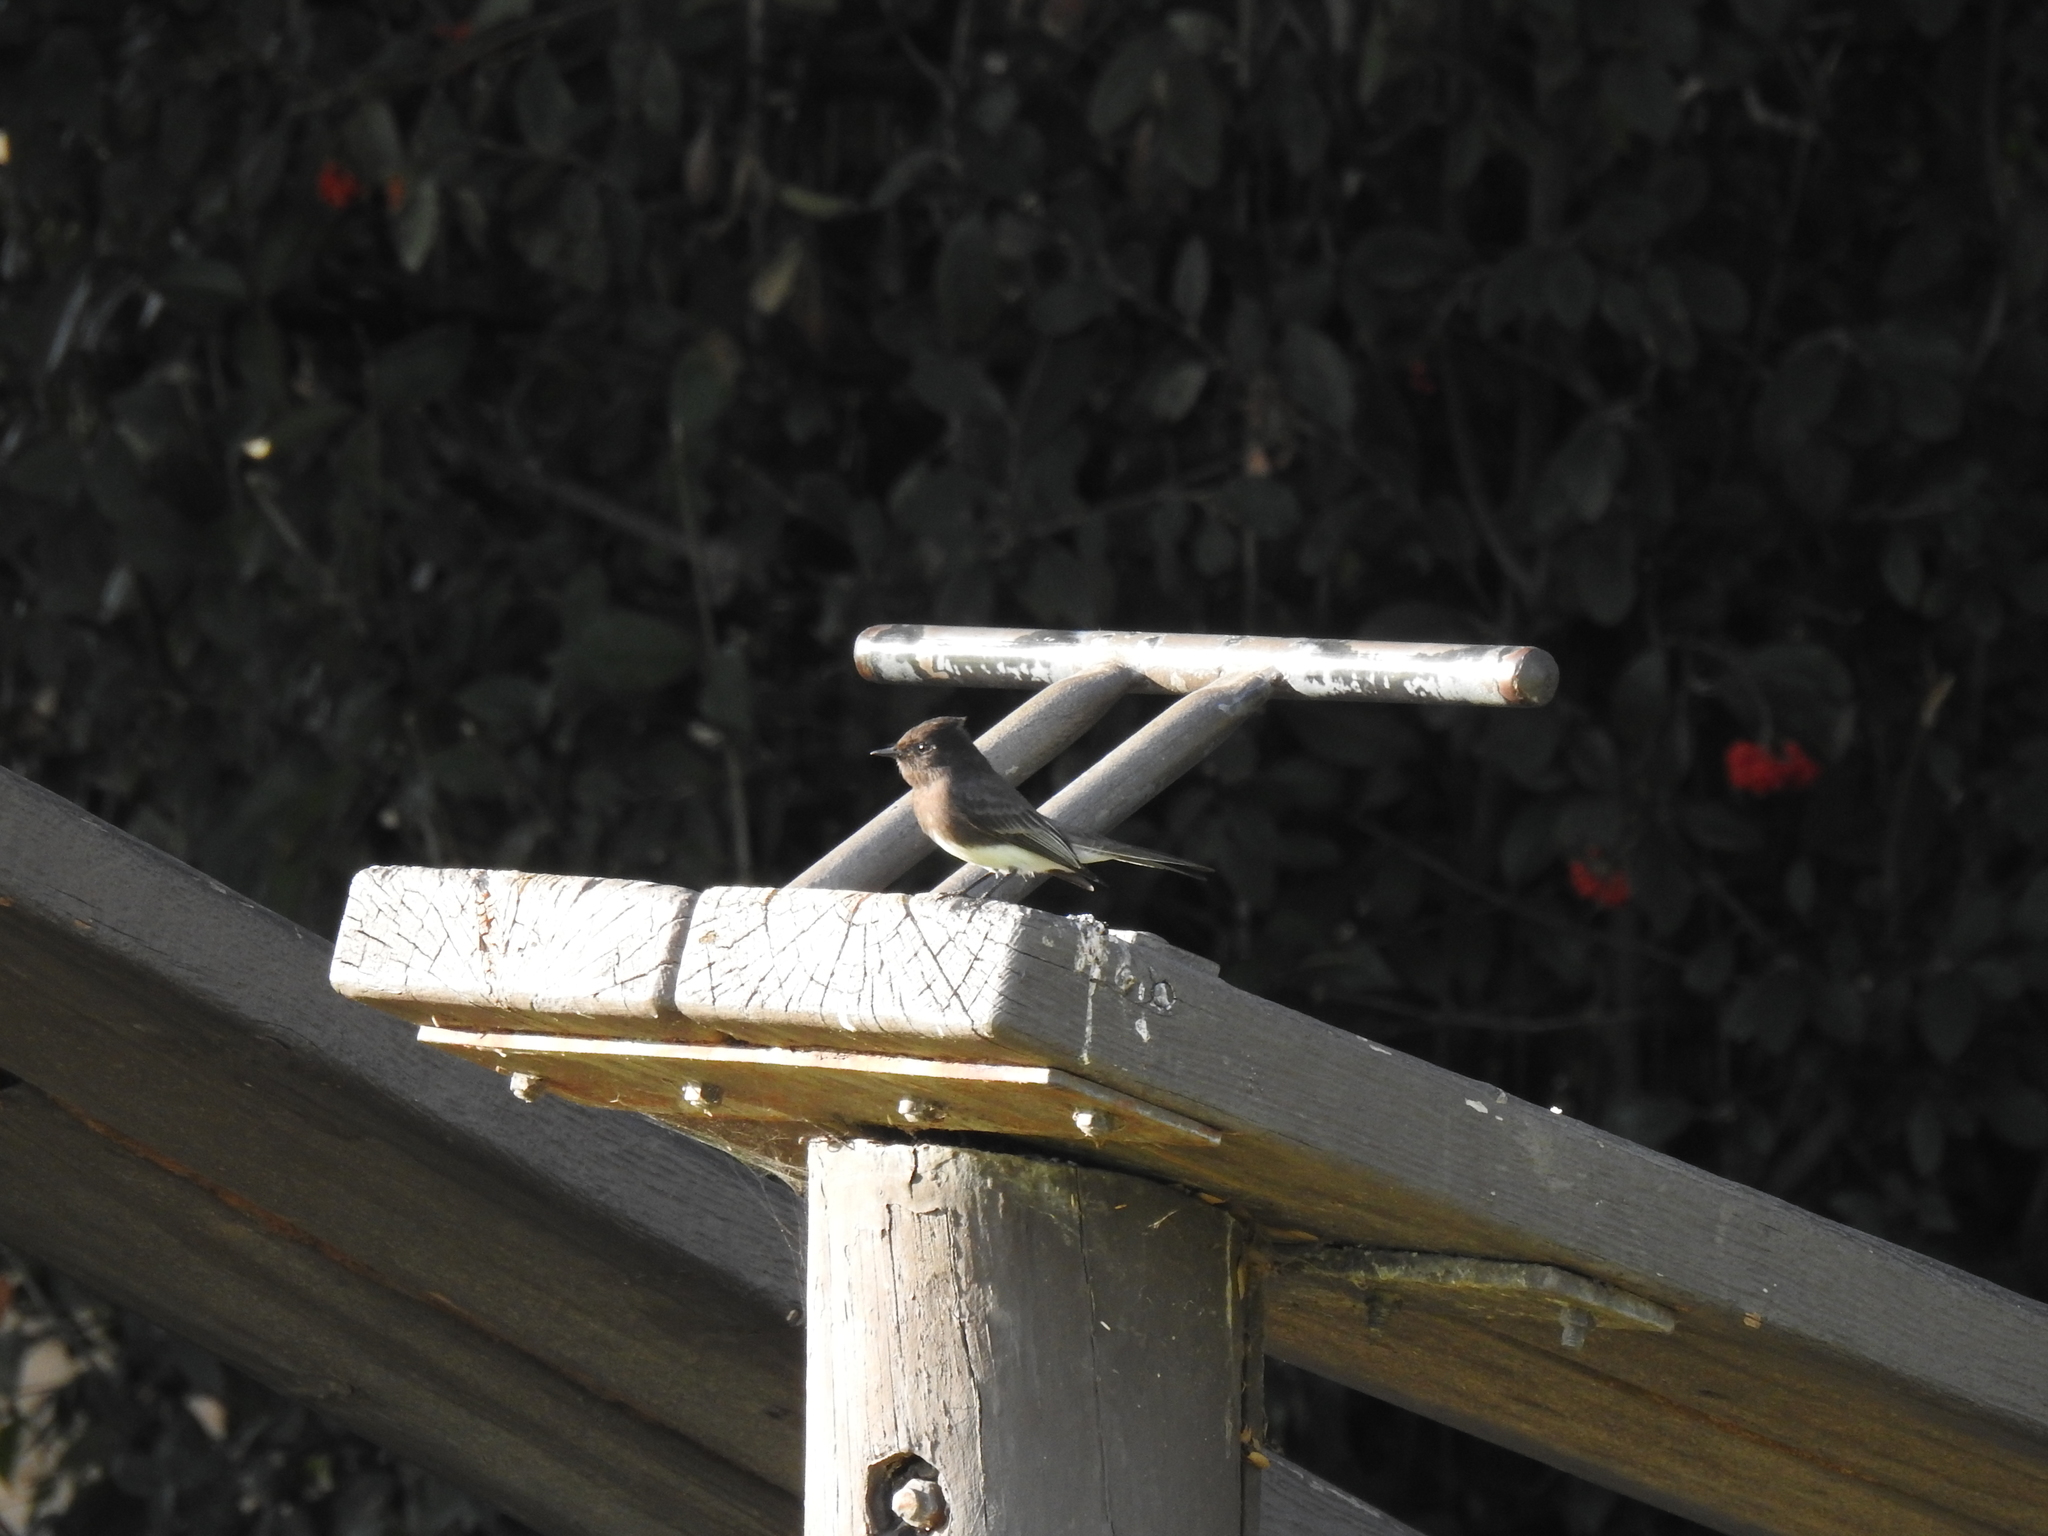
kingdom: Animalia
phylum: Chordata
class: Aves
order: Passeriformes
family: Tyrannidae
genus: Sayornis
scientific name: Sayornis nigricans
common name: Black phoebe
